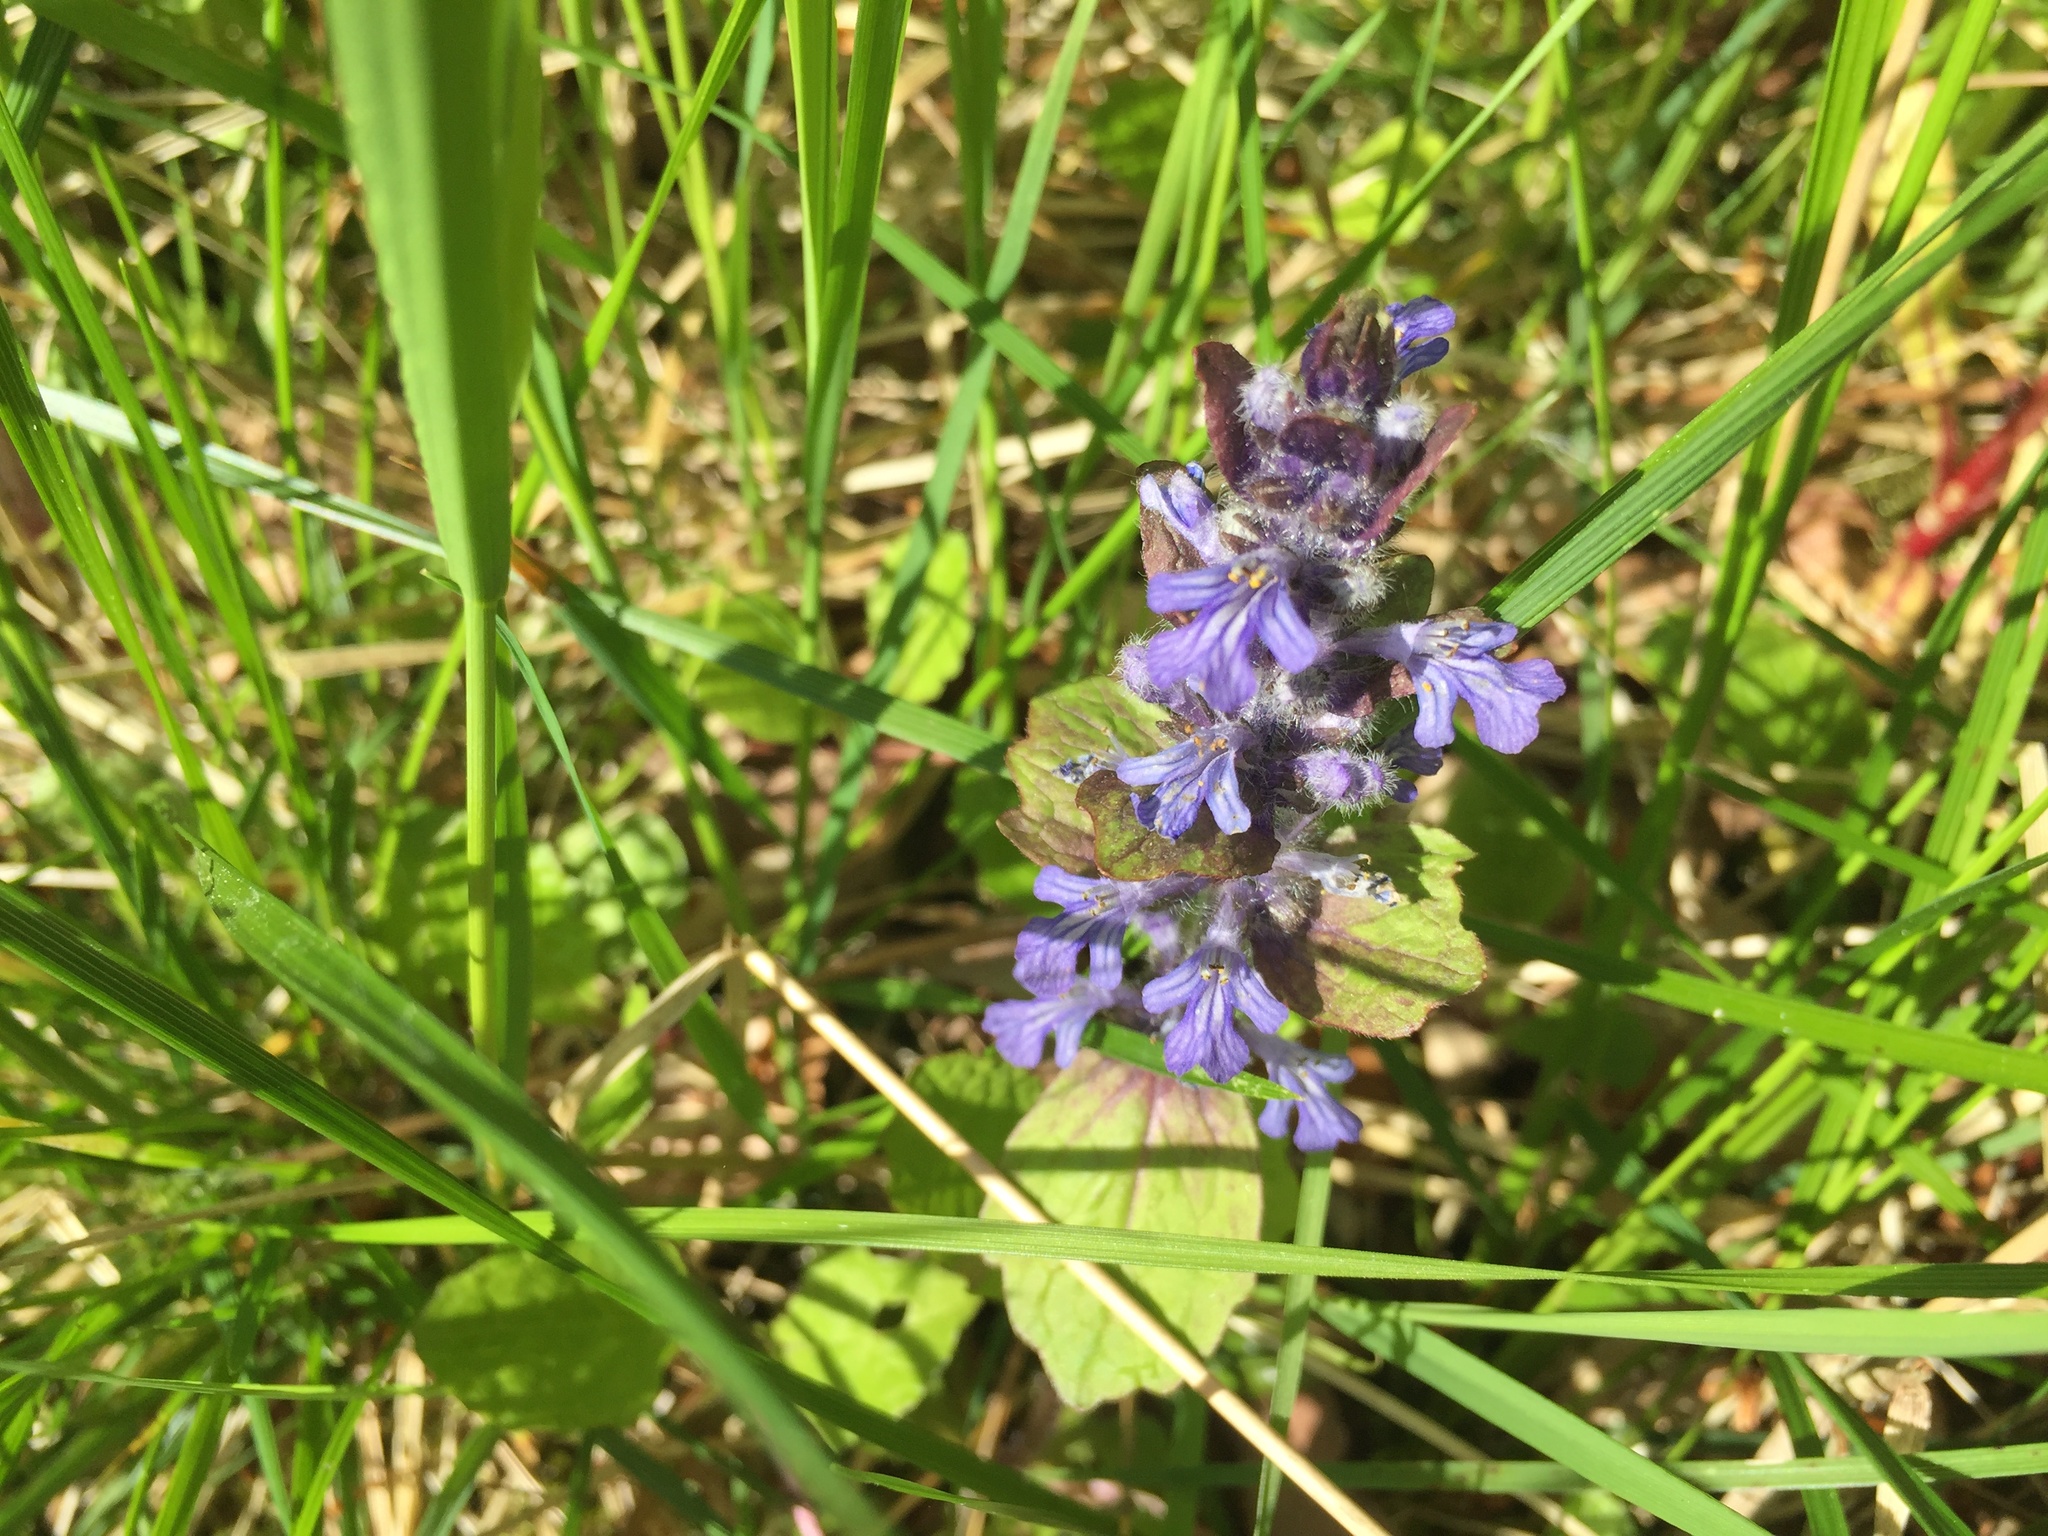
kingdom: Plantae
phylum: Tracheophyta
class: Magnoliopsida
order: Lamiales
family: Lamiaceae
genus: Ajuga
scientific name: Ajuga reptans
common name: Bugle
